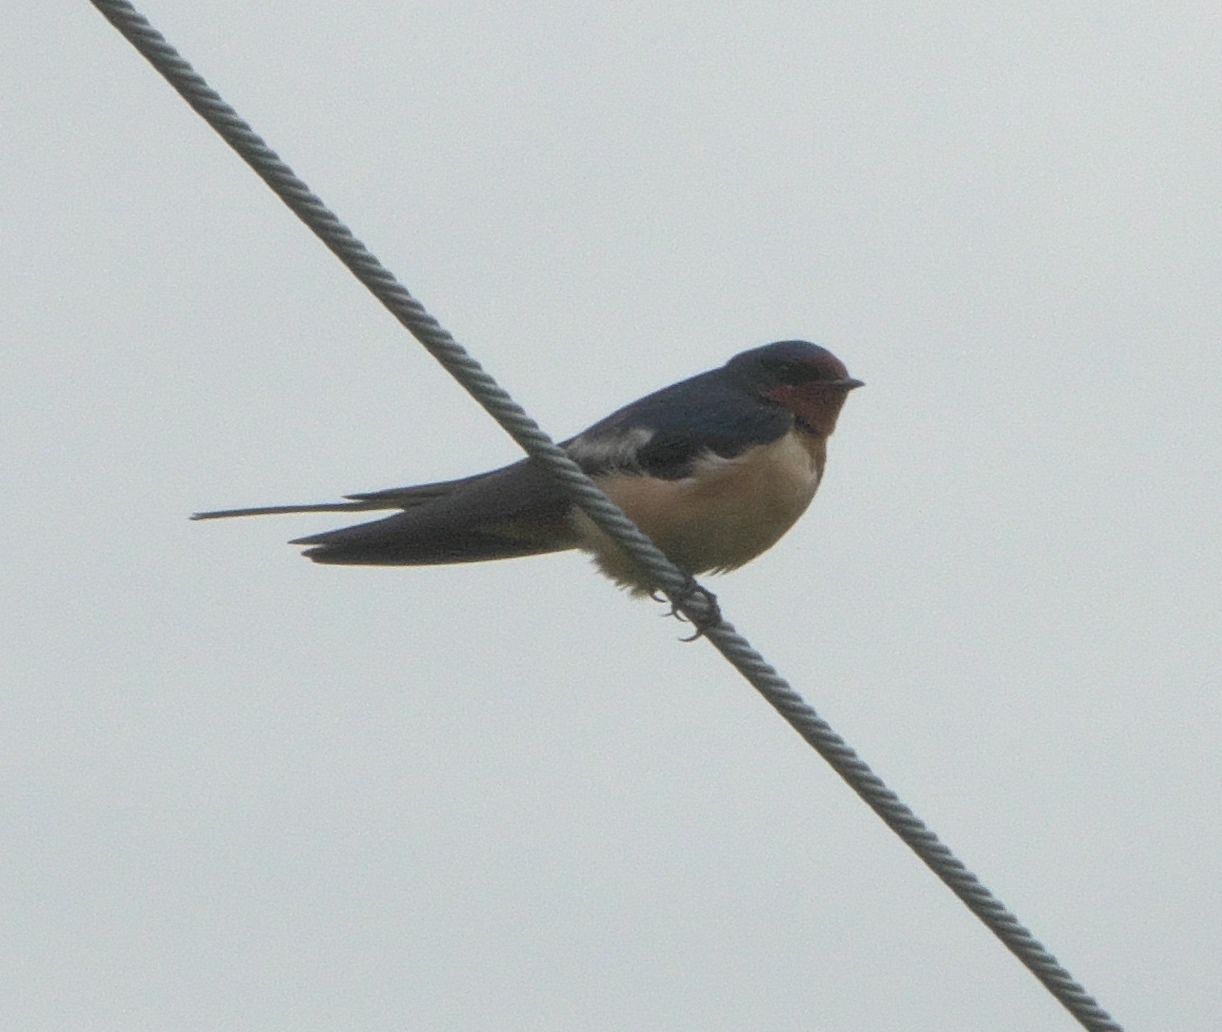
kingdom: Animalia
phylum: Chordata
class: Aves
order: Passeriformes
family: Hirundinidae
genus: Hirundo
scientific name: Hirundo rustica
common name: Barn swallow
